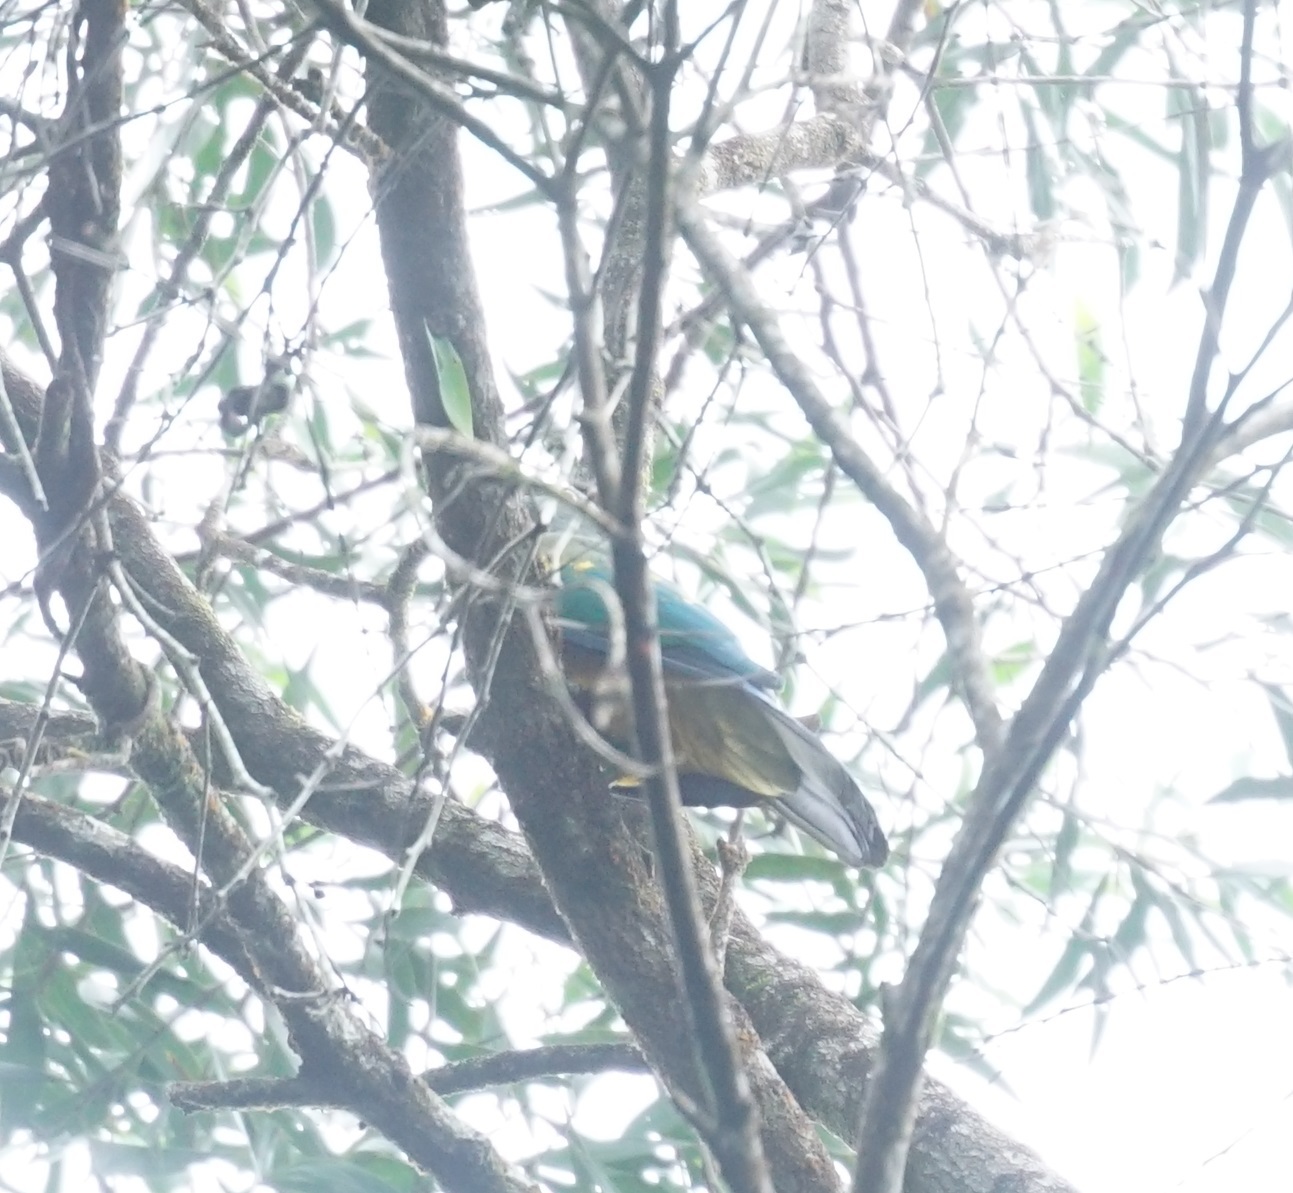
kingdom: Animalia
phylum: Chordata
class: Aves
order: Columbiformes
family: Columbidae
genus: Ptilinopus
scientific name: Ptilinopus magnificus
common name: Wompoo fruit dove
